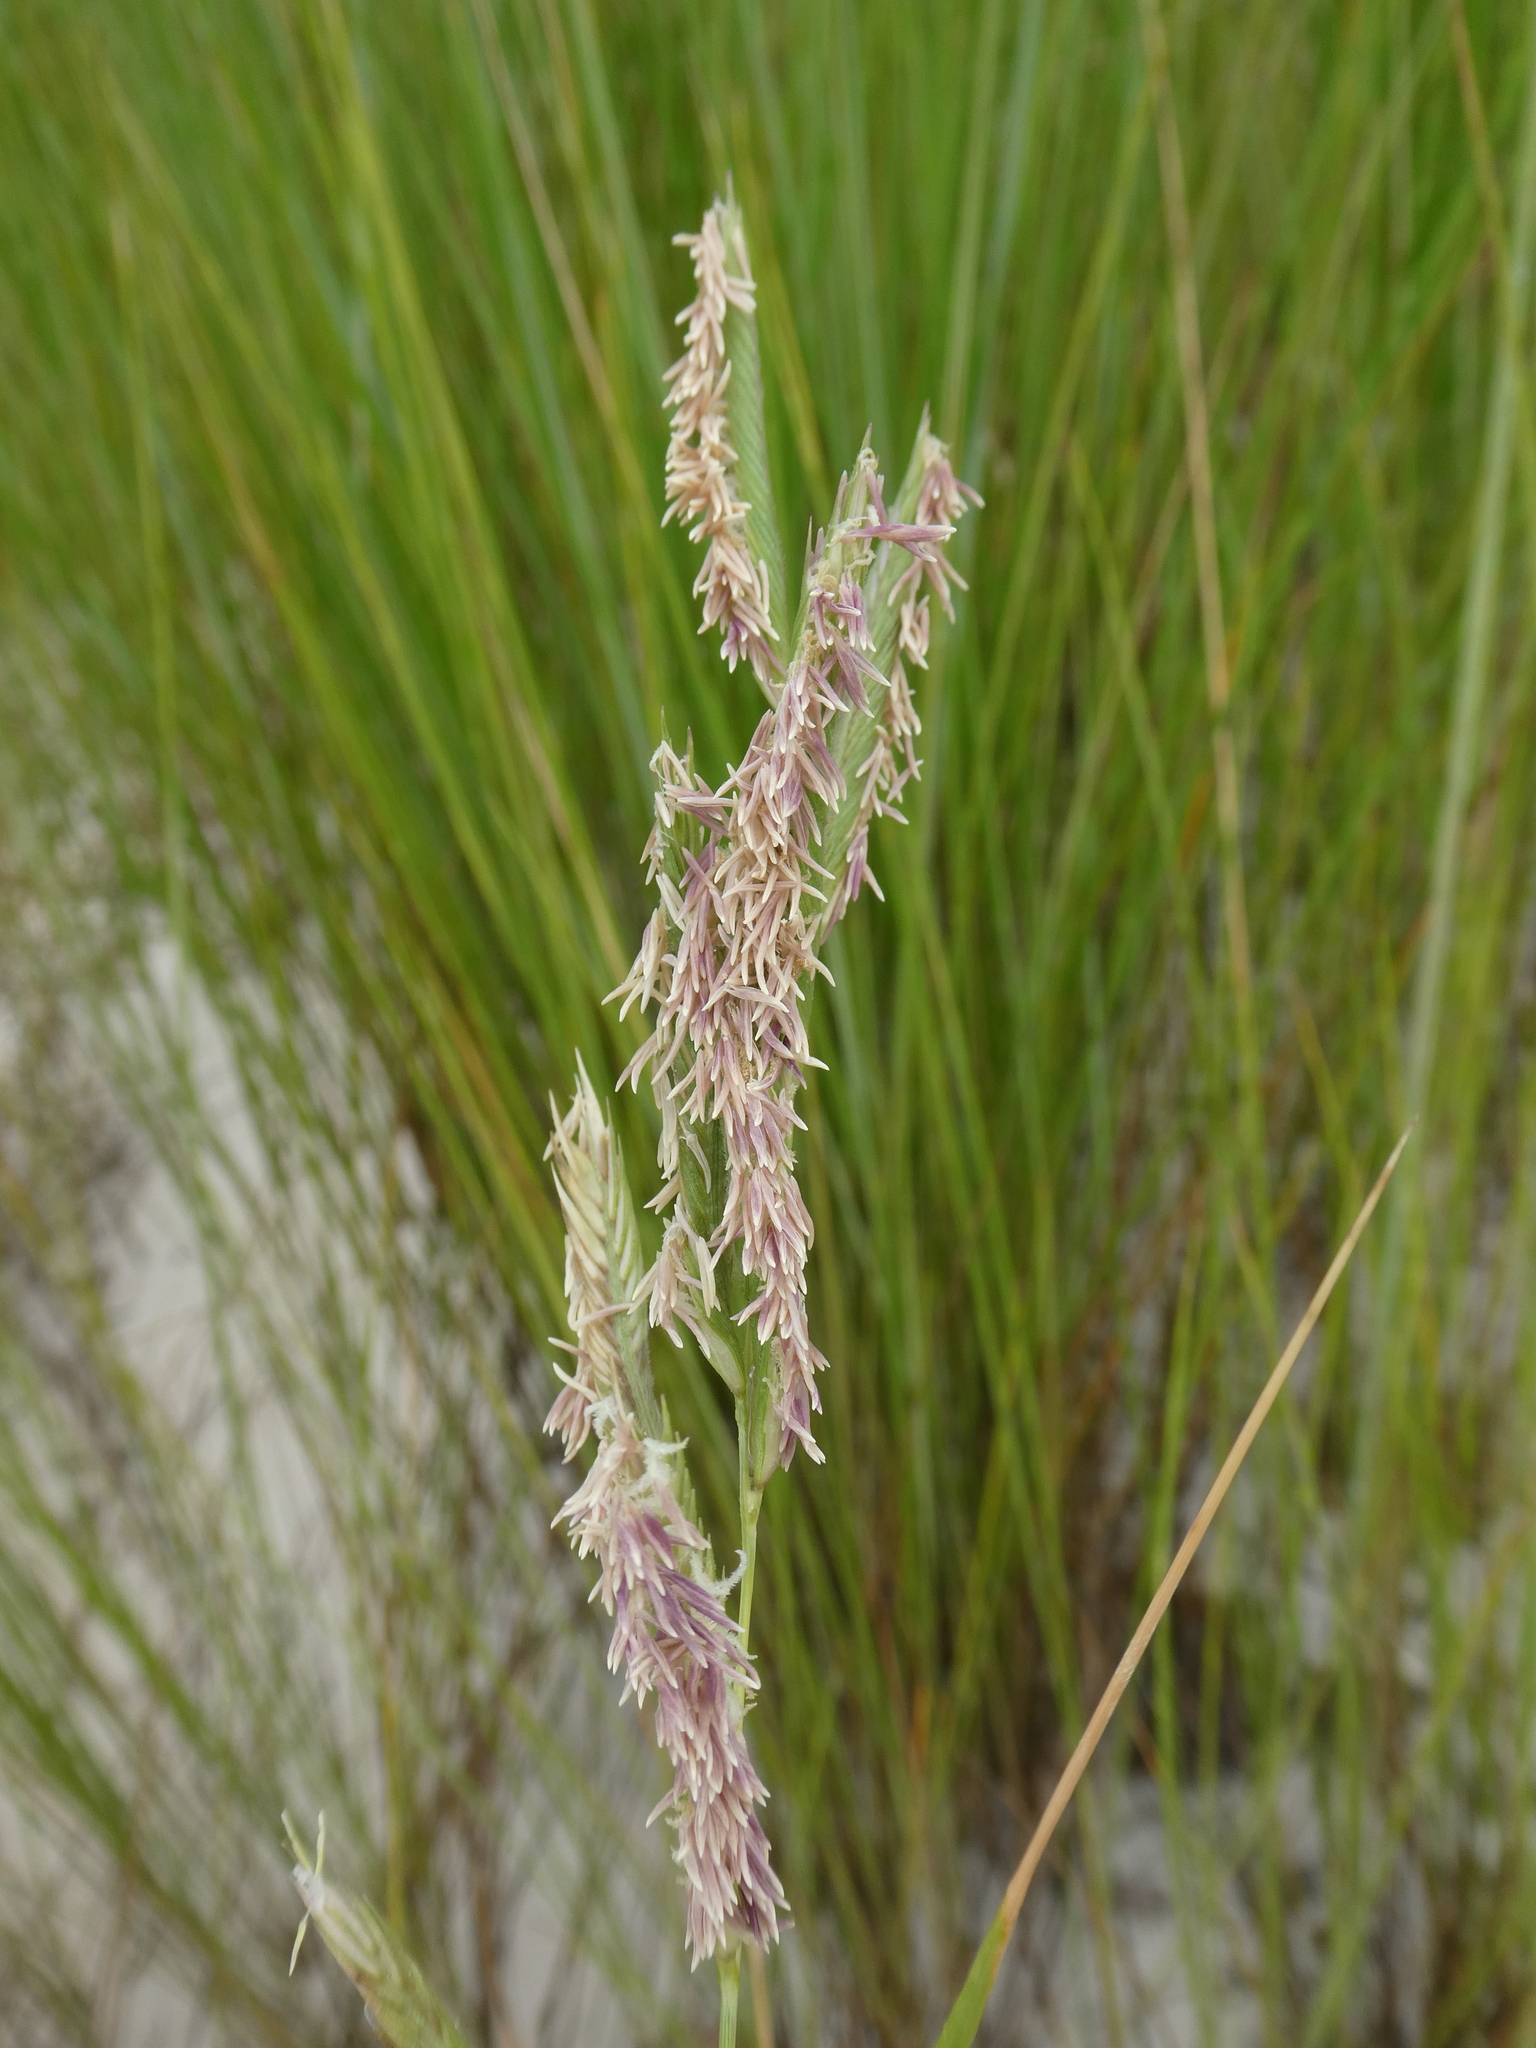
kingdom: Plantae
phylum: Tracheophyta
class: Liliopsida
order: Poales
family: Poaceae
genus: Sporobolus
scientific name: Sporobolus pumilus
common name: Highwater grass
